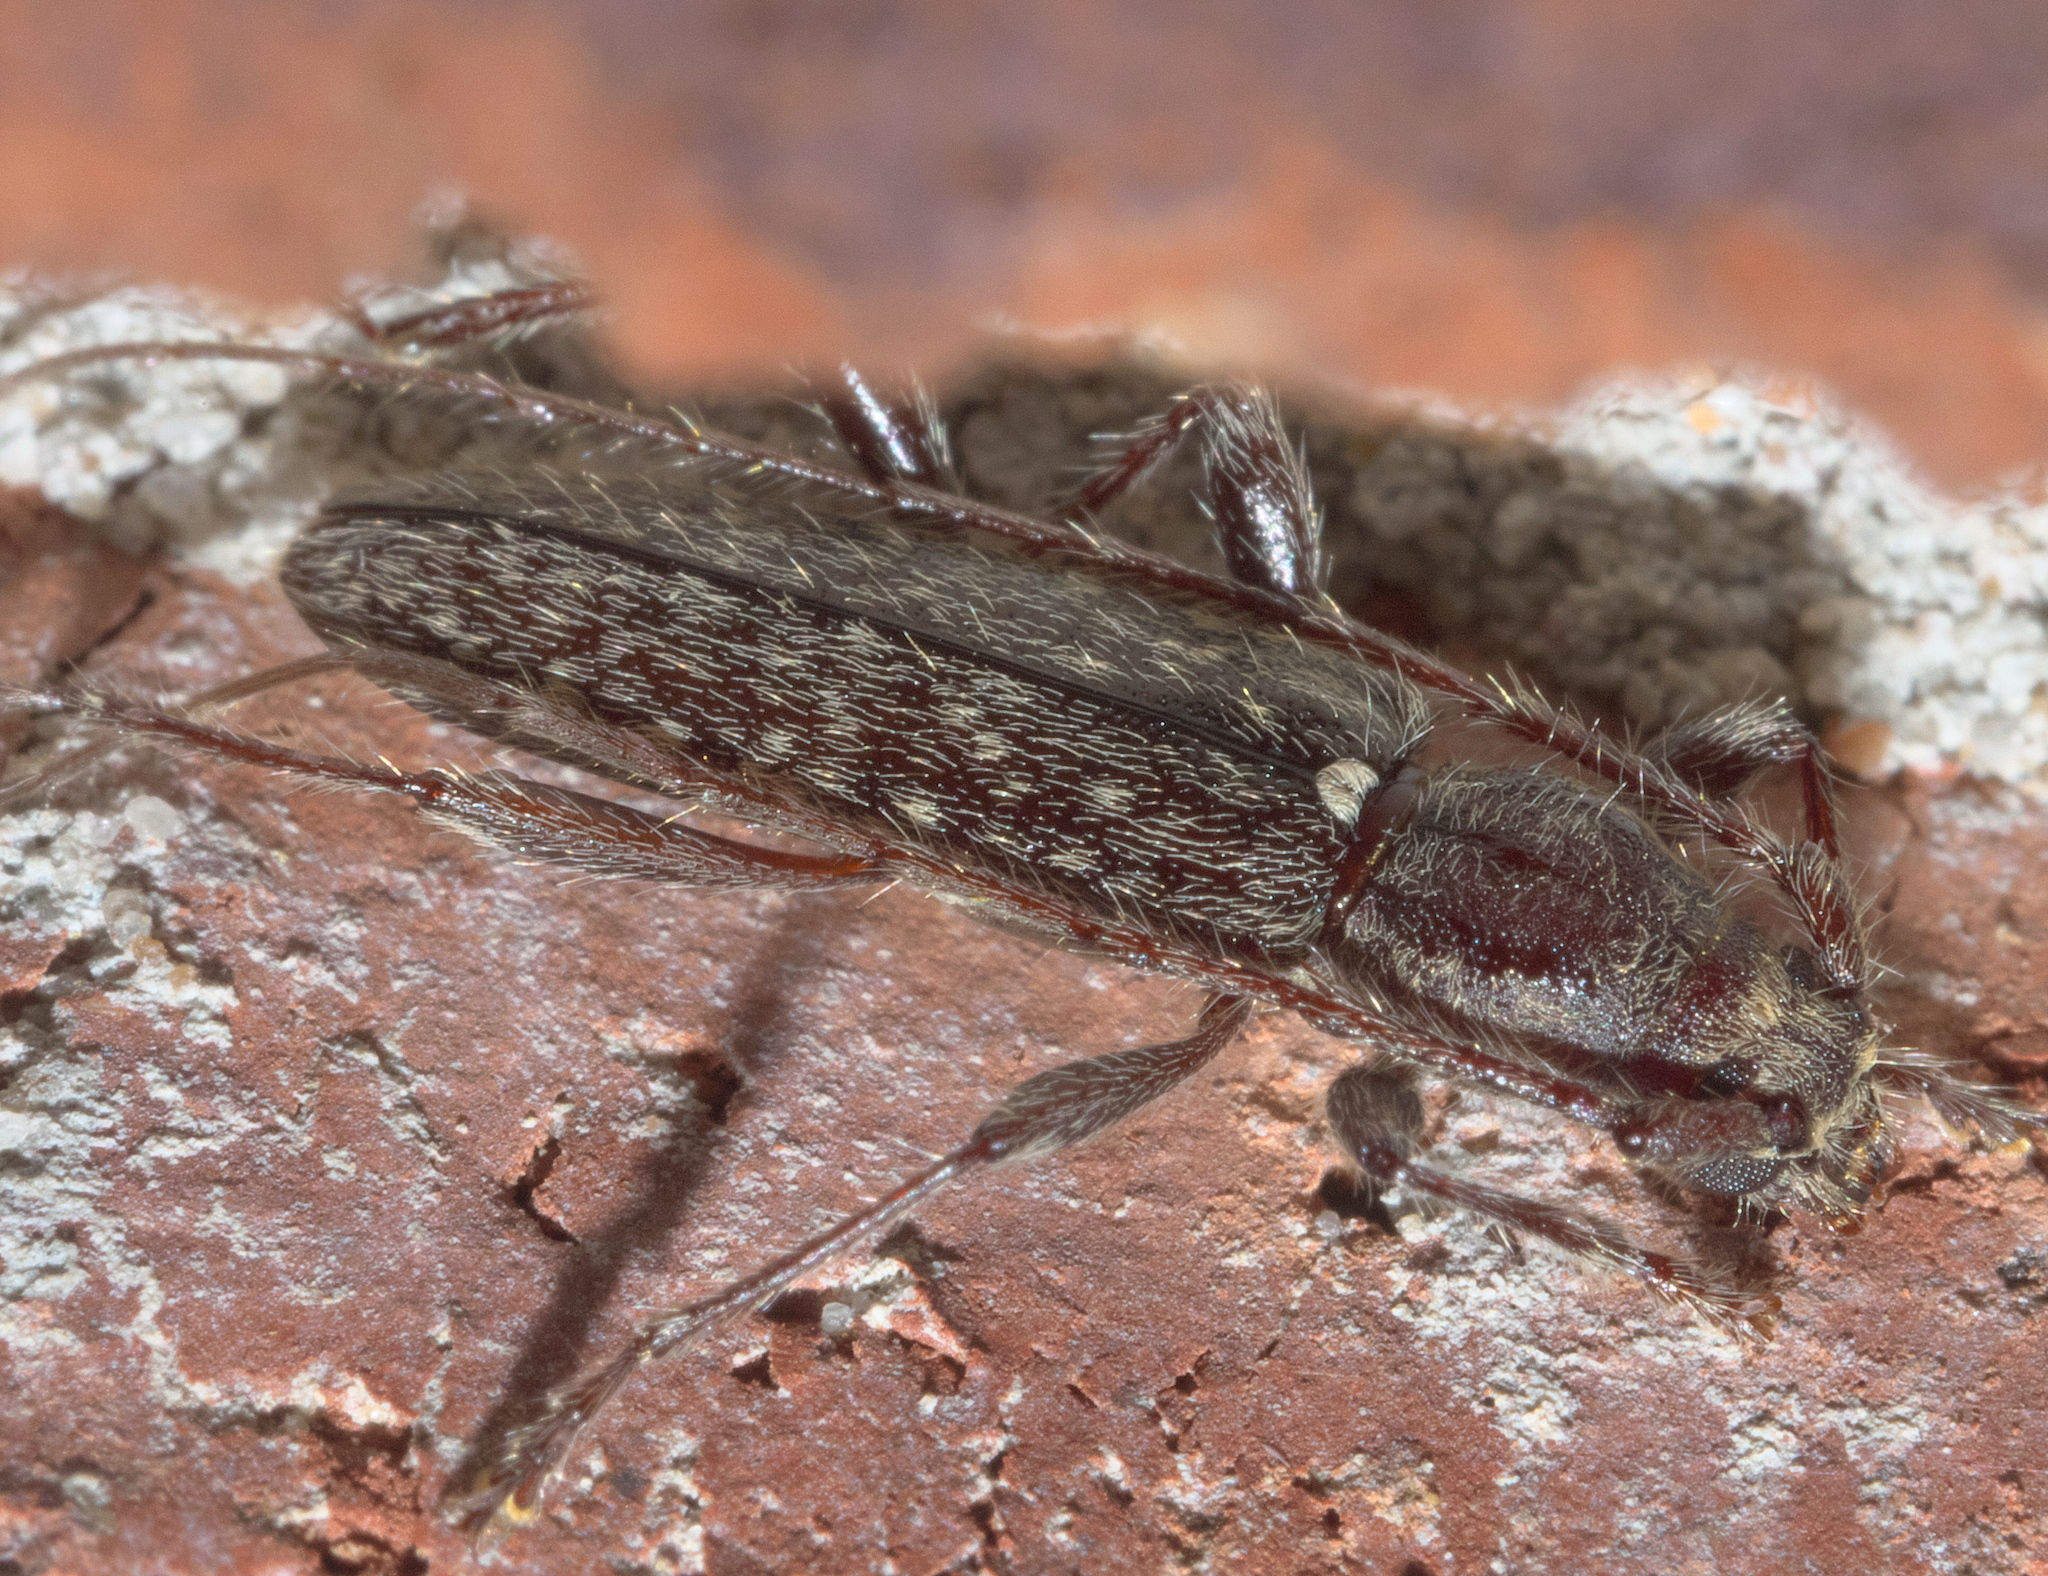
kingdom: Animalia
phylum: Arthropoda
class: Insecta
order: Coleoptera
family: Cerambycidae
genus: Anelaphus
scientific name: Anelaphus pumilus
